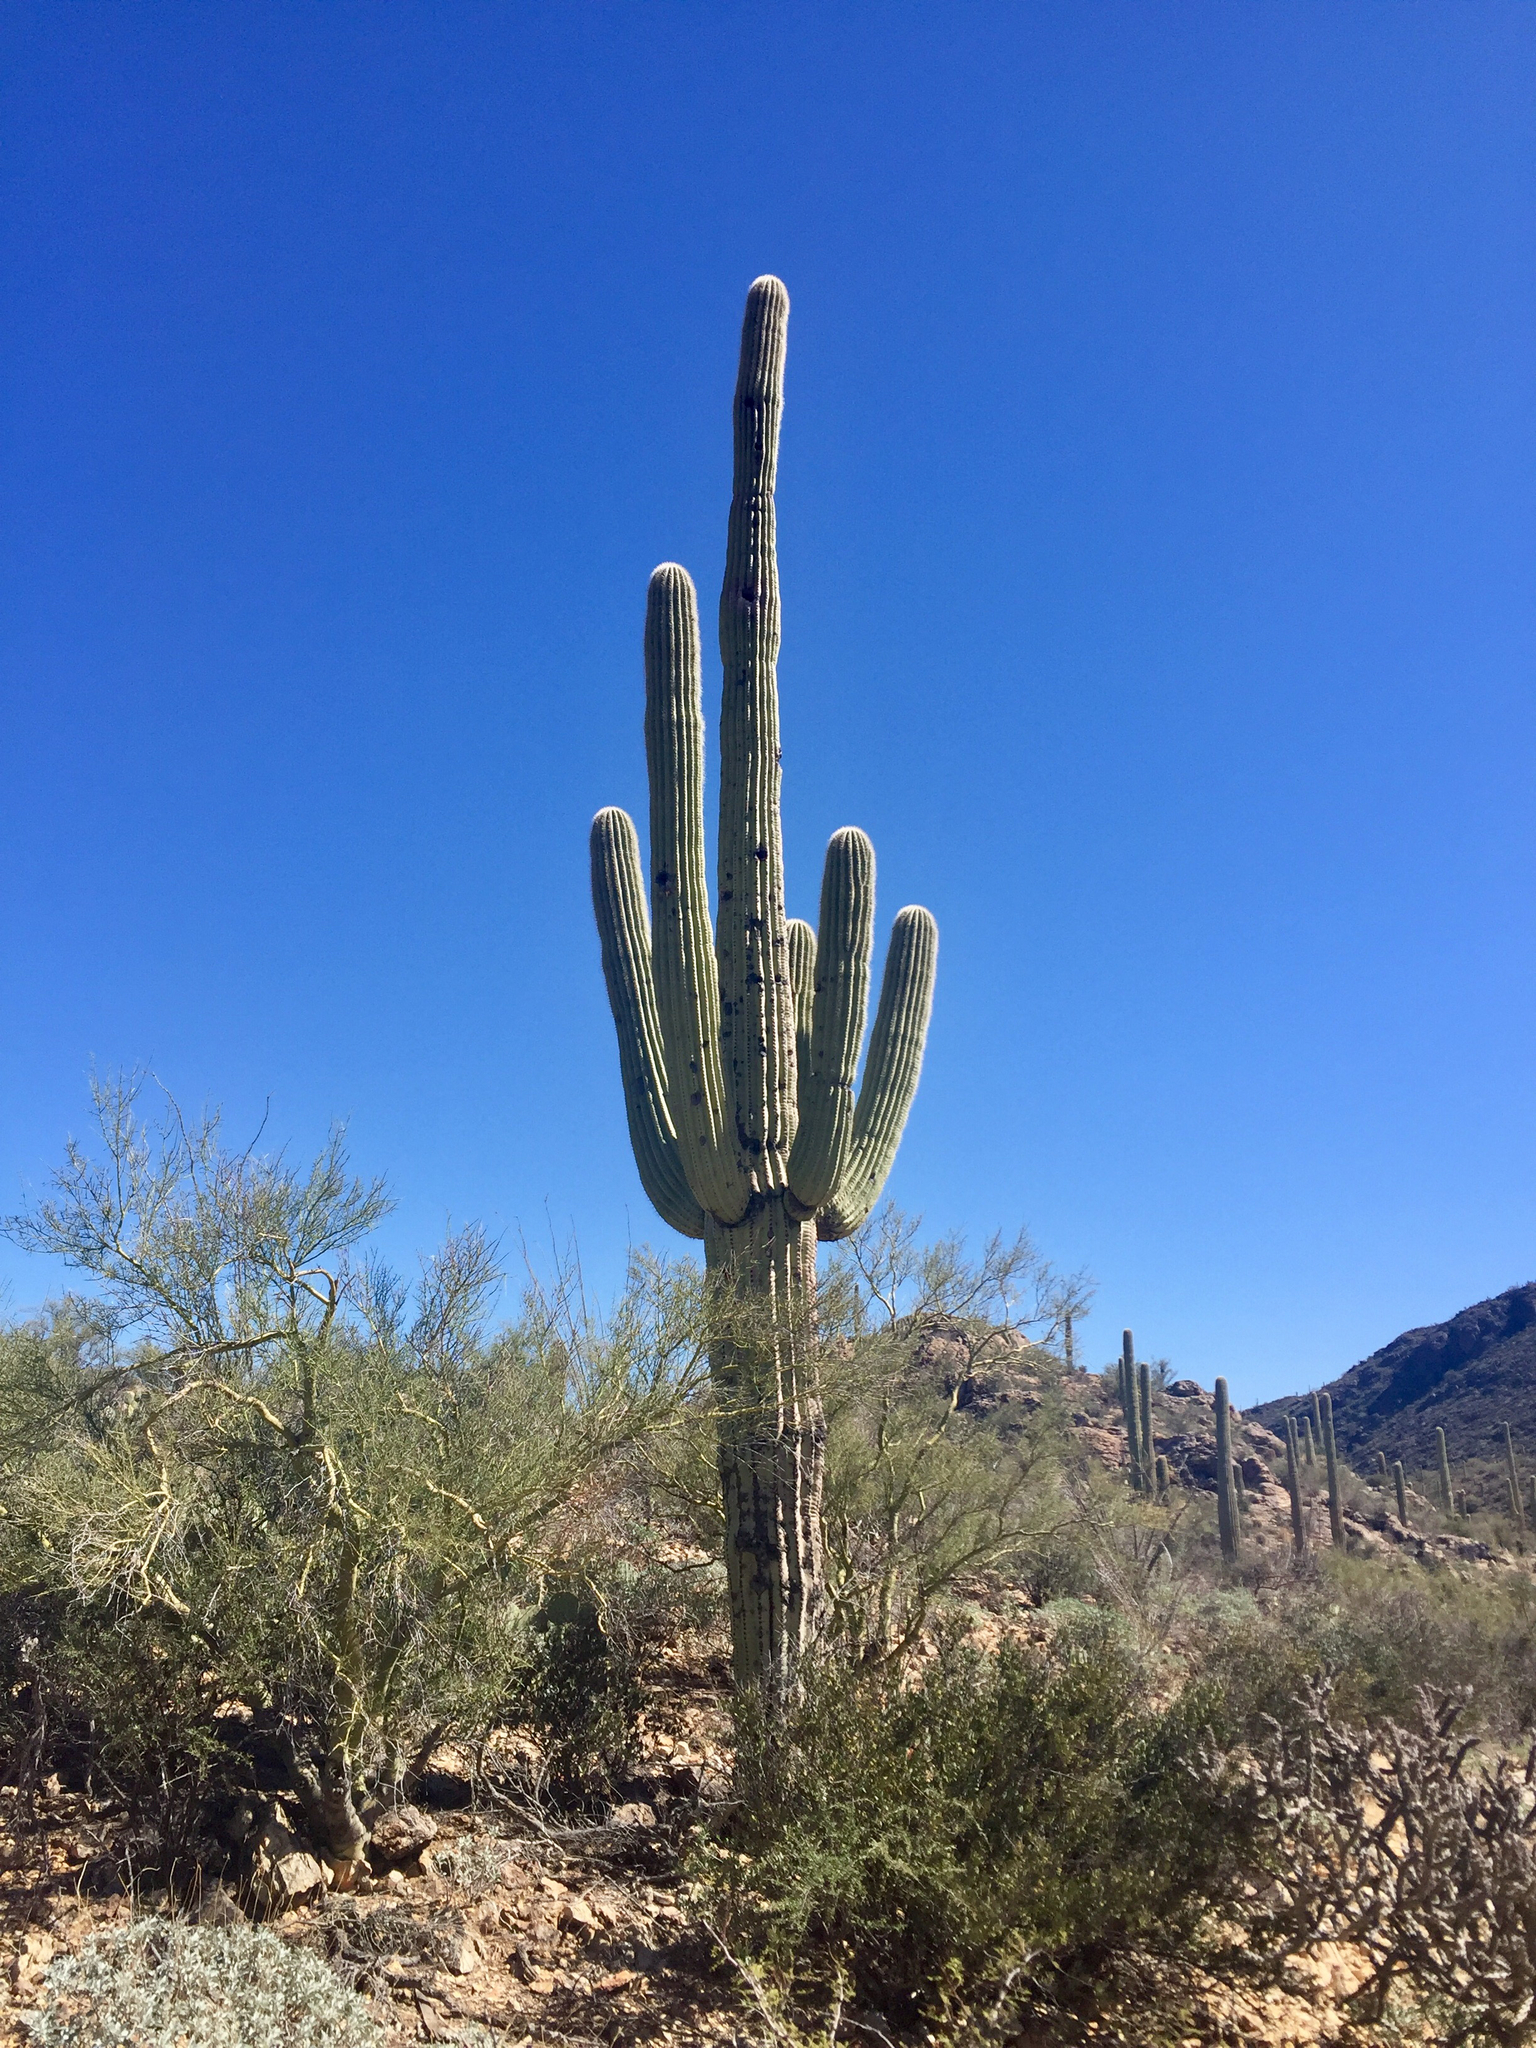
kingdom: Plantae
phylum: Tracheophyta
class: Magnoliopsida
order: Caryophyllales
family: Cactaceae
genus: Carnegiea
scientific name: Carnegiea gigantea
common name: Saguaro
